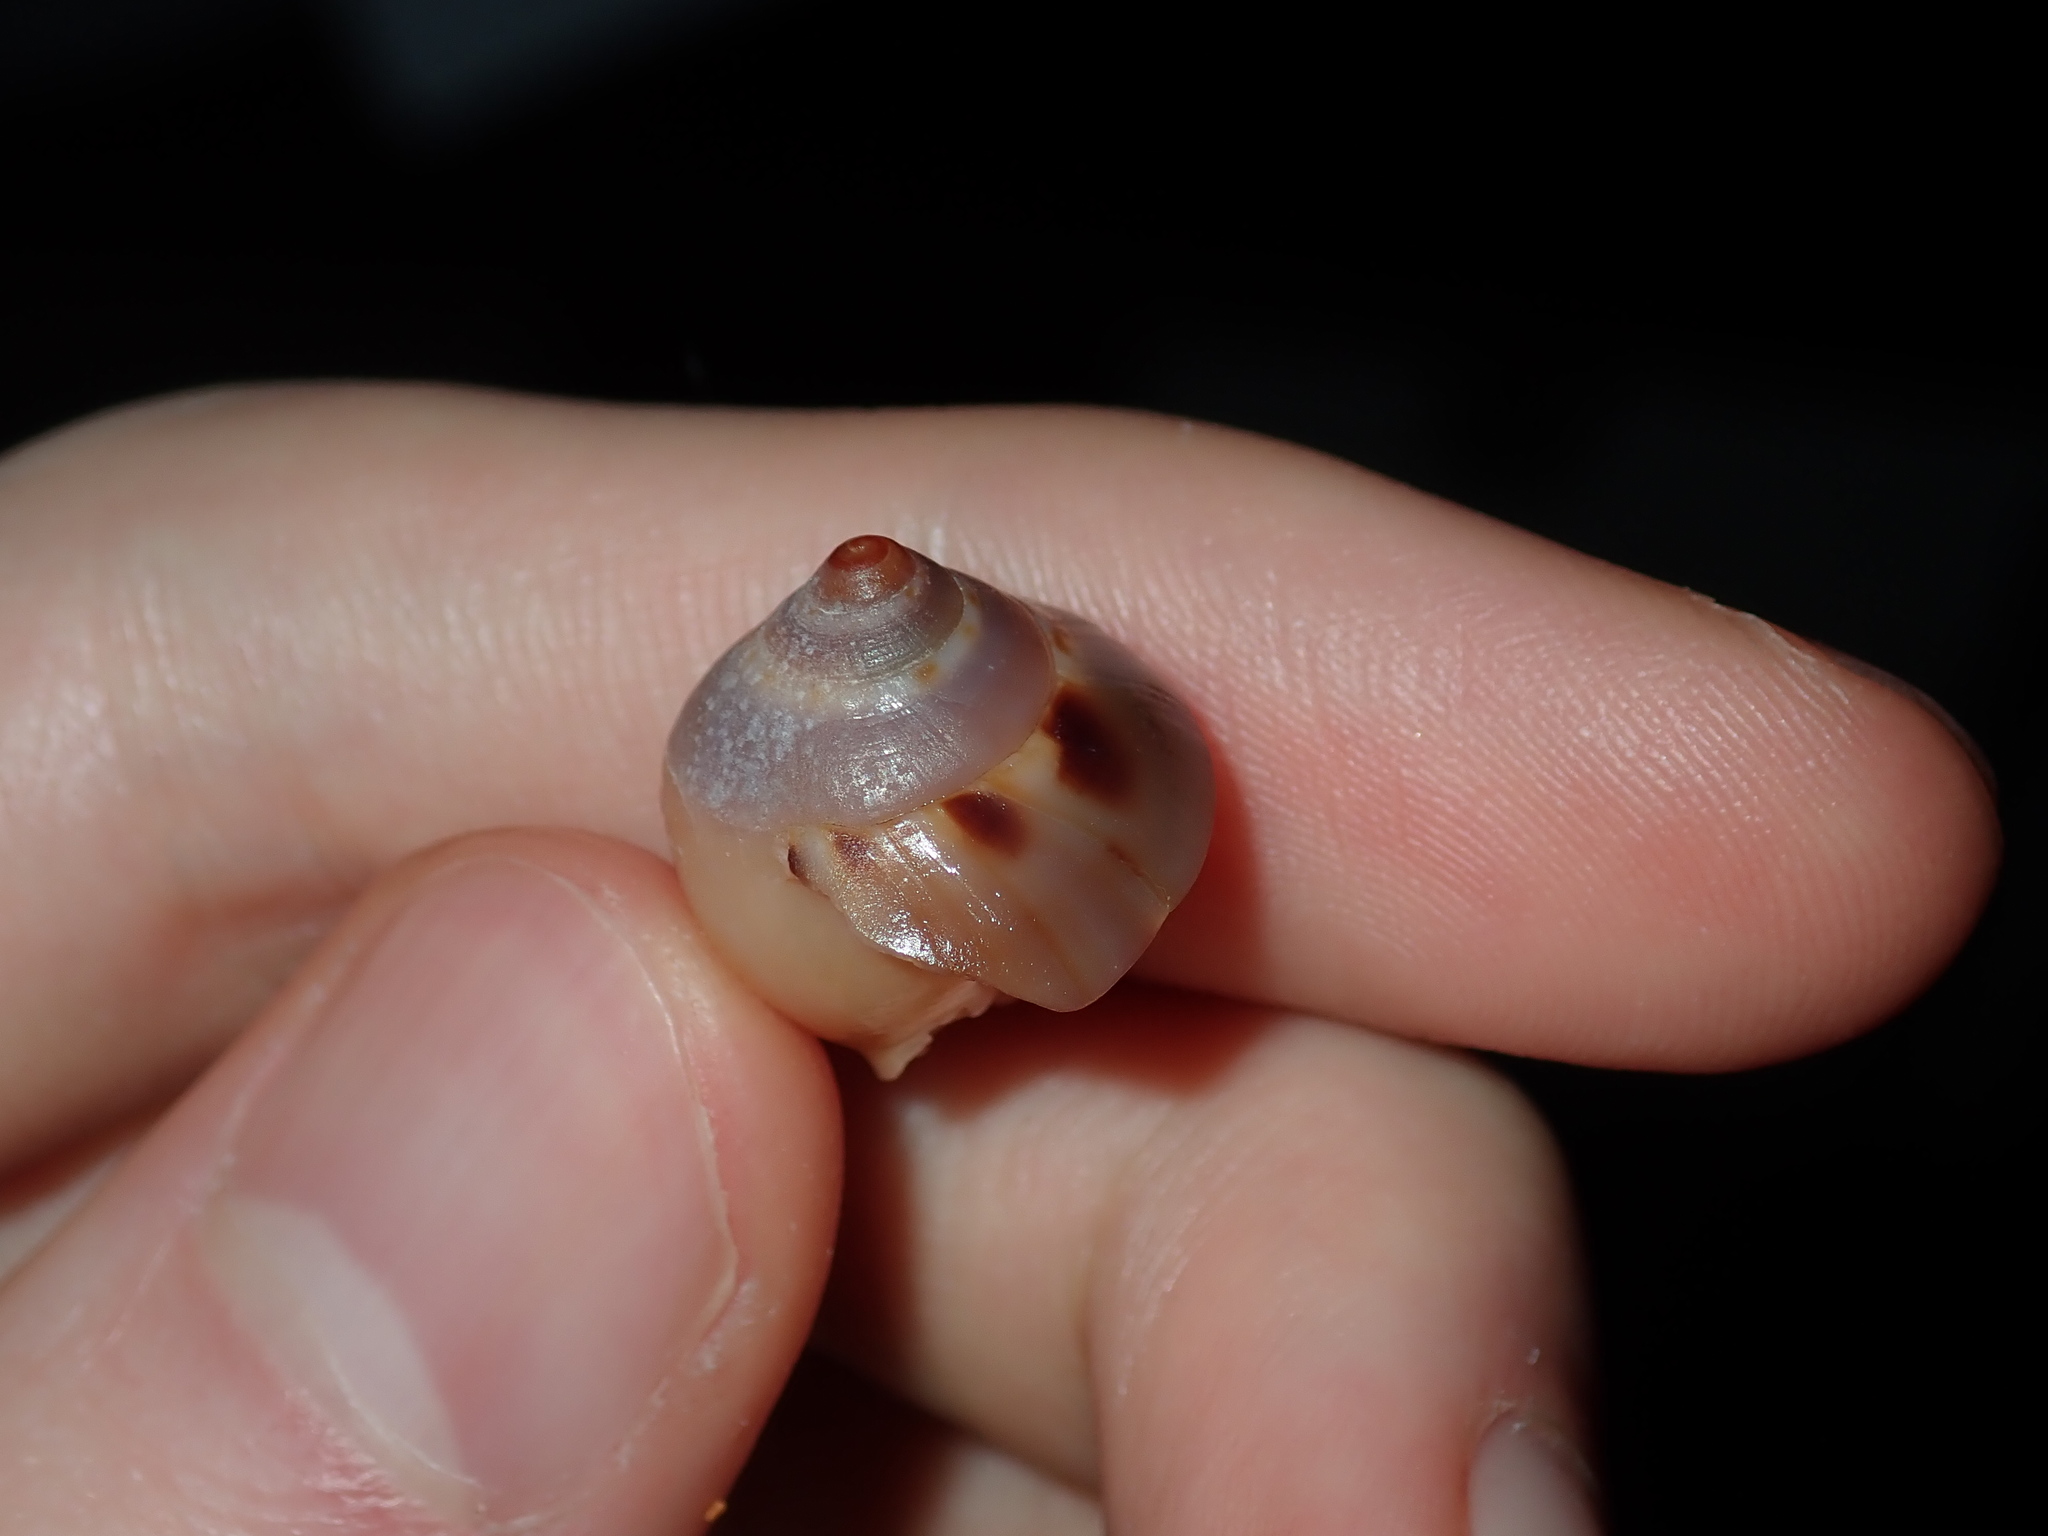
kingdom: Animalia
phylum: Mollusca
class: Gastropoda
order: Littorinimorpha
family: Cassidae
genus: Semicassis
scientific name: Semicassis labiata
